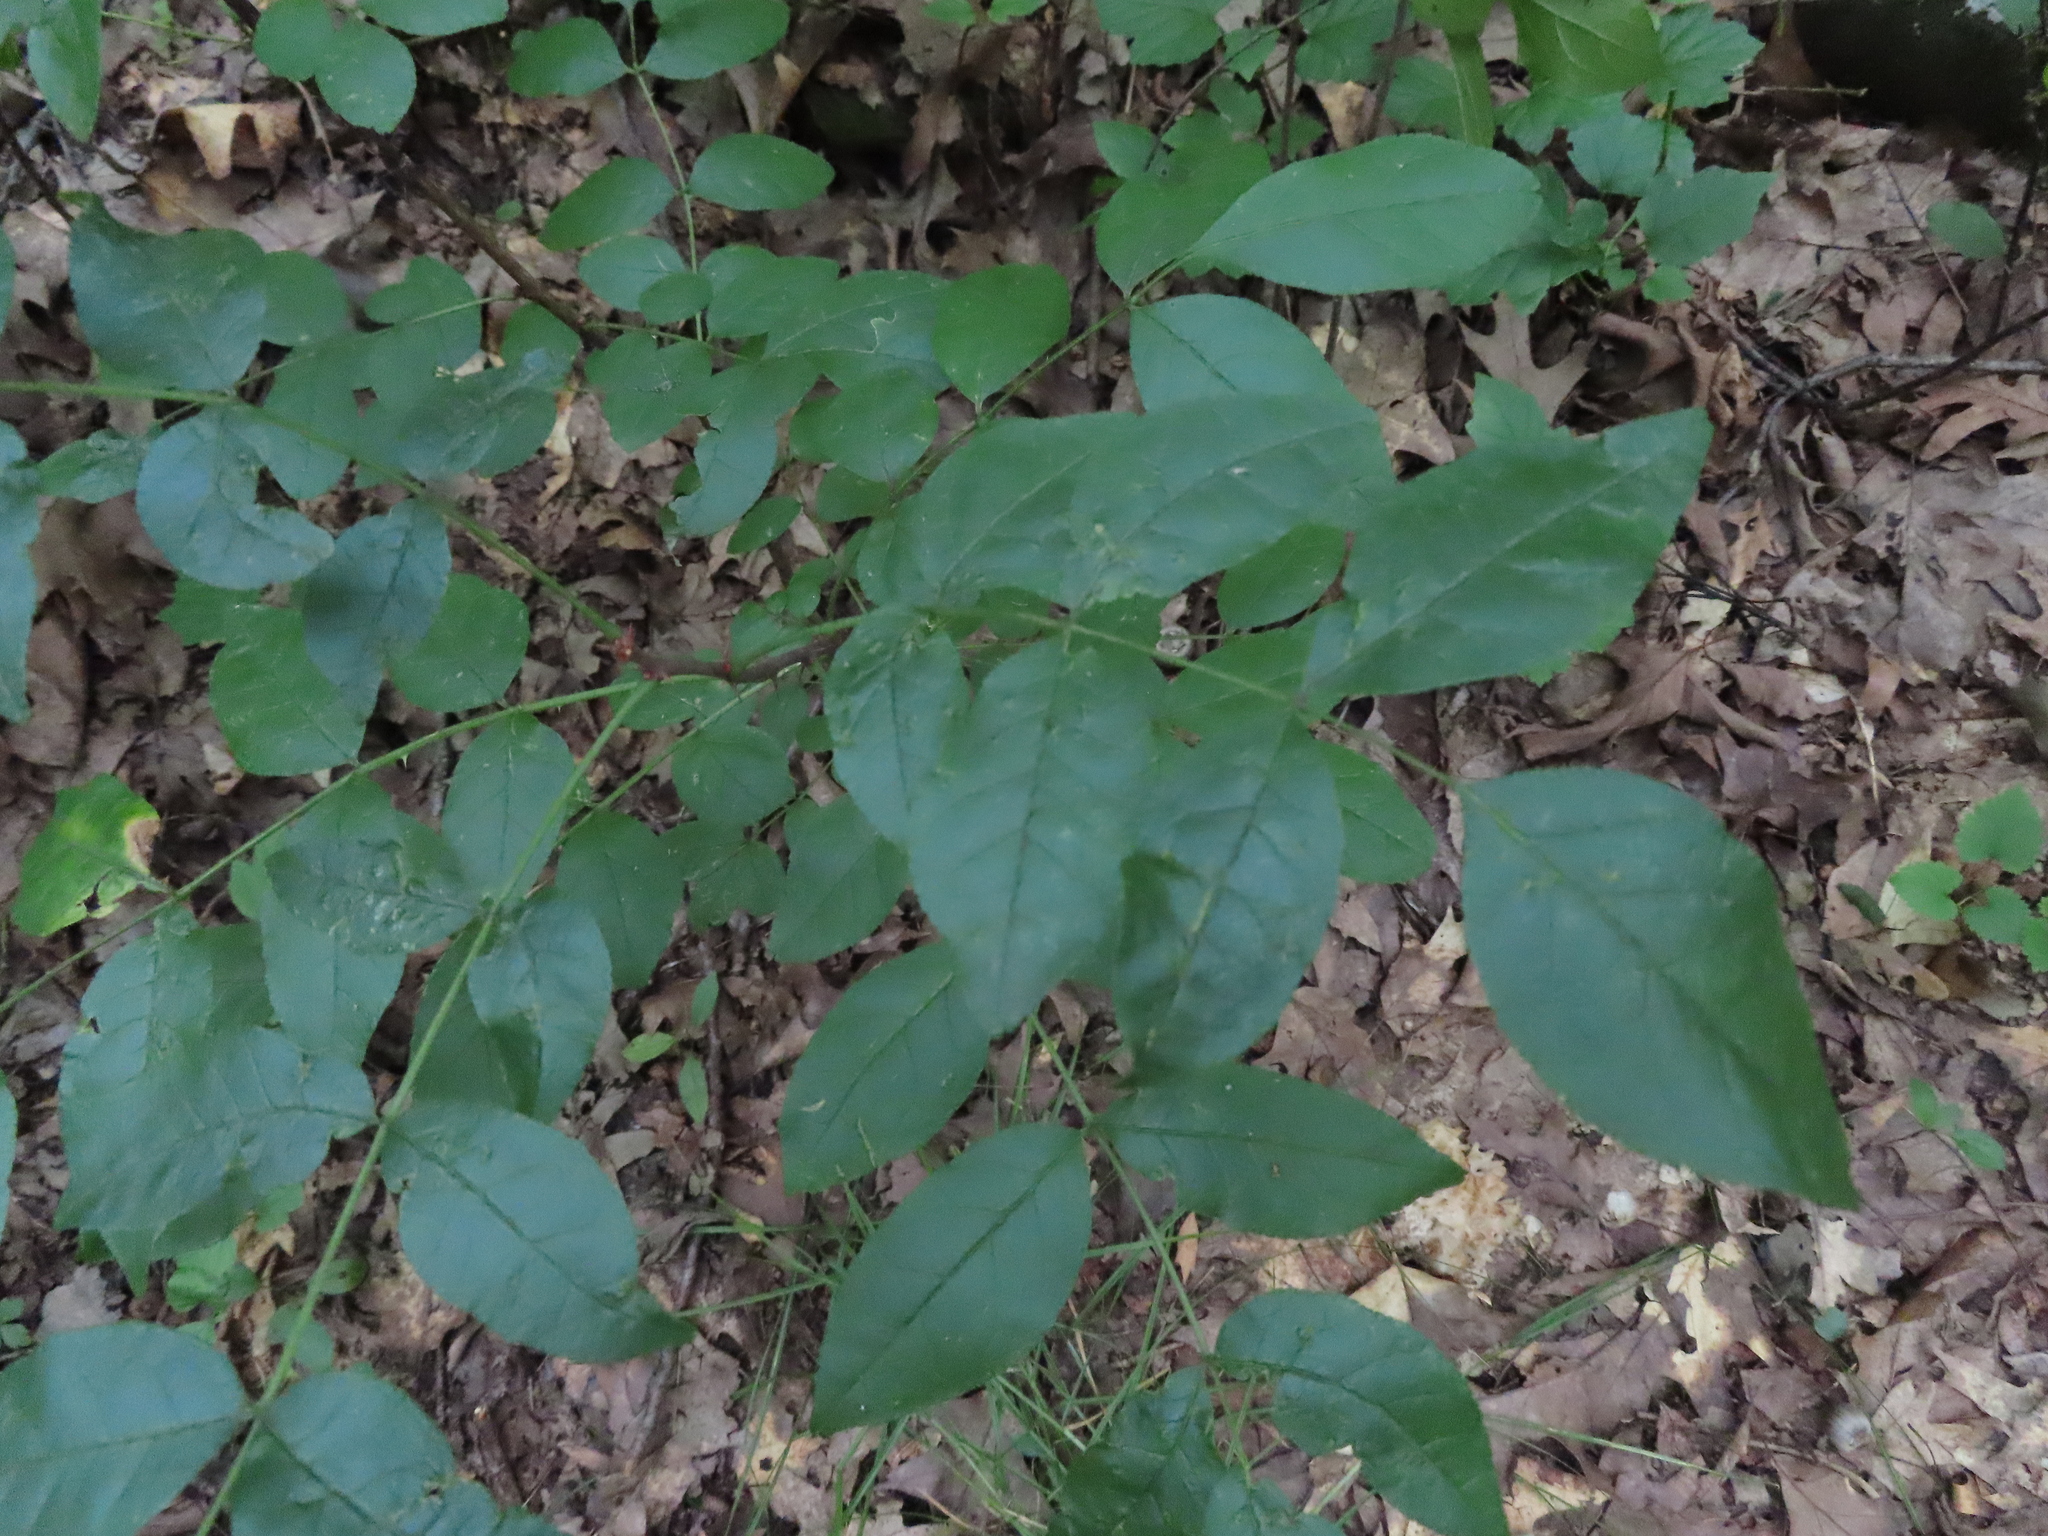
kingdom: Plantae
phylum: Tracheophyta
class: Magnoliopsida
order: Sapindales
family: Rutaceae
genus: Zanthoxylum
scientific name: Zanthoxylum americanum
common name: Northern prickly-ash
